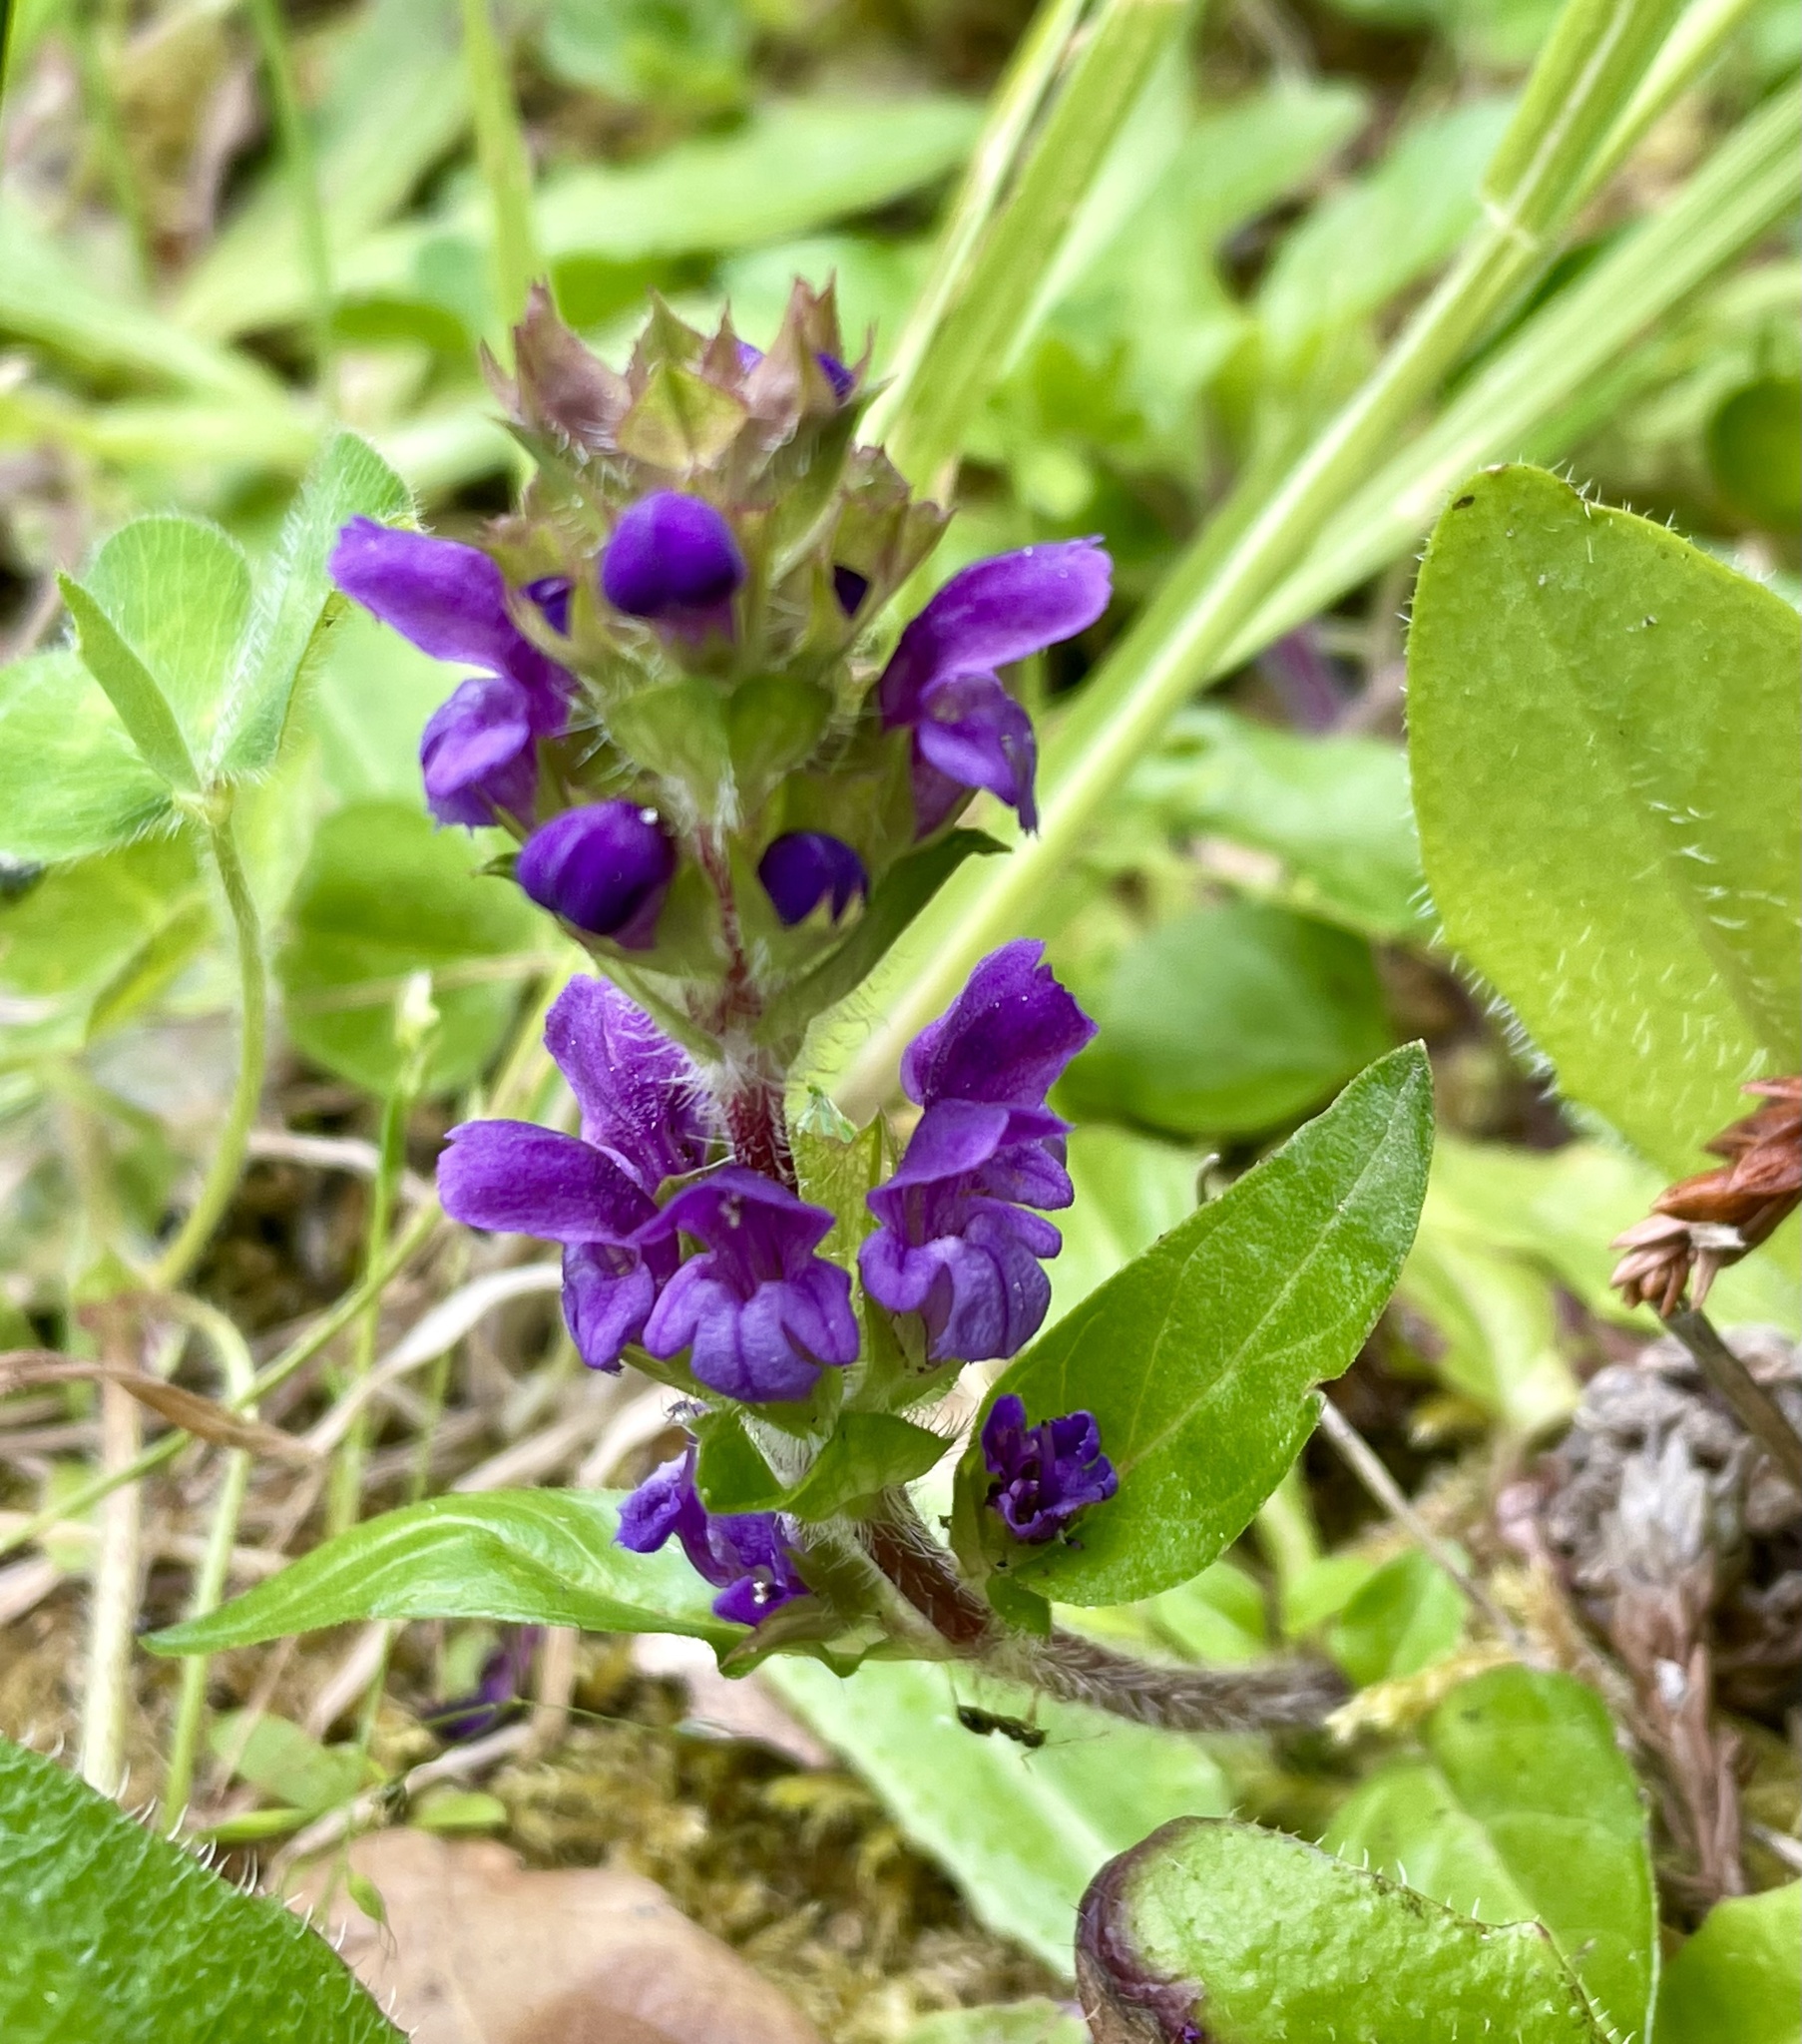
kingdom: Plantae
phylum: Tracheophyta
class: Magnoliopsida
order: Lamiales
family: Lamiaceae
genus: Prunella
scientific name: Prunella vulgaris
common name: Heal-all
